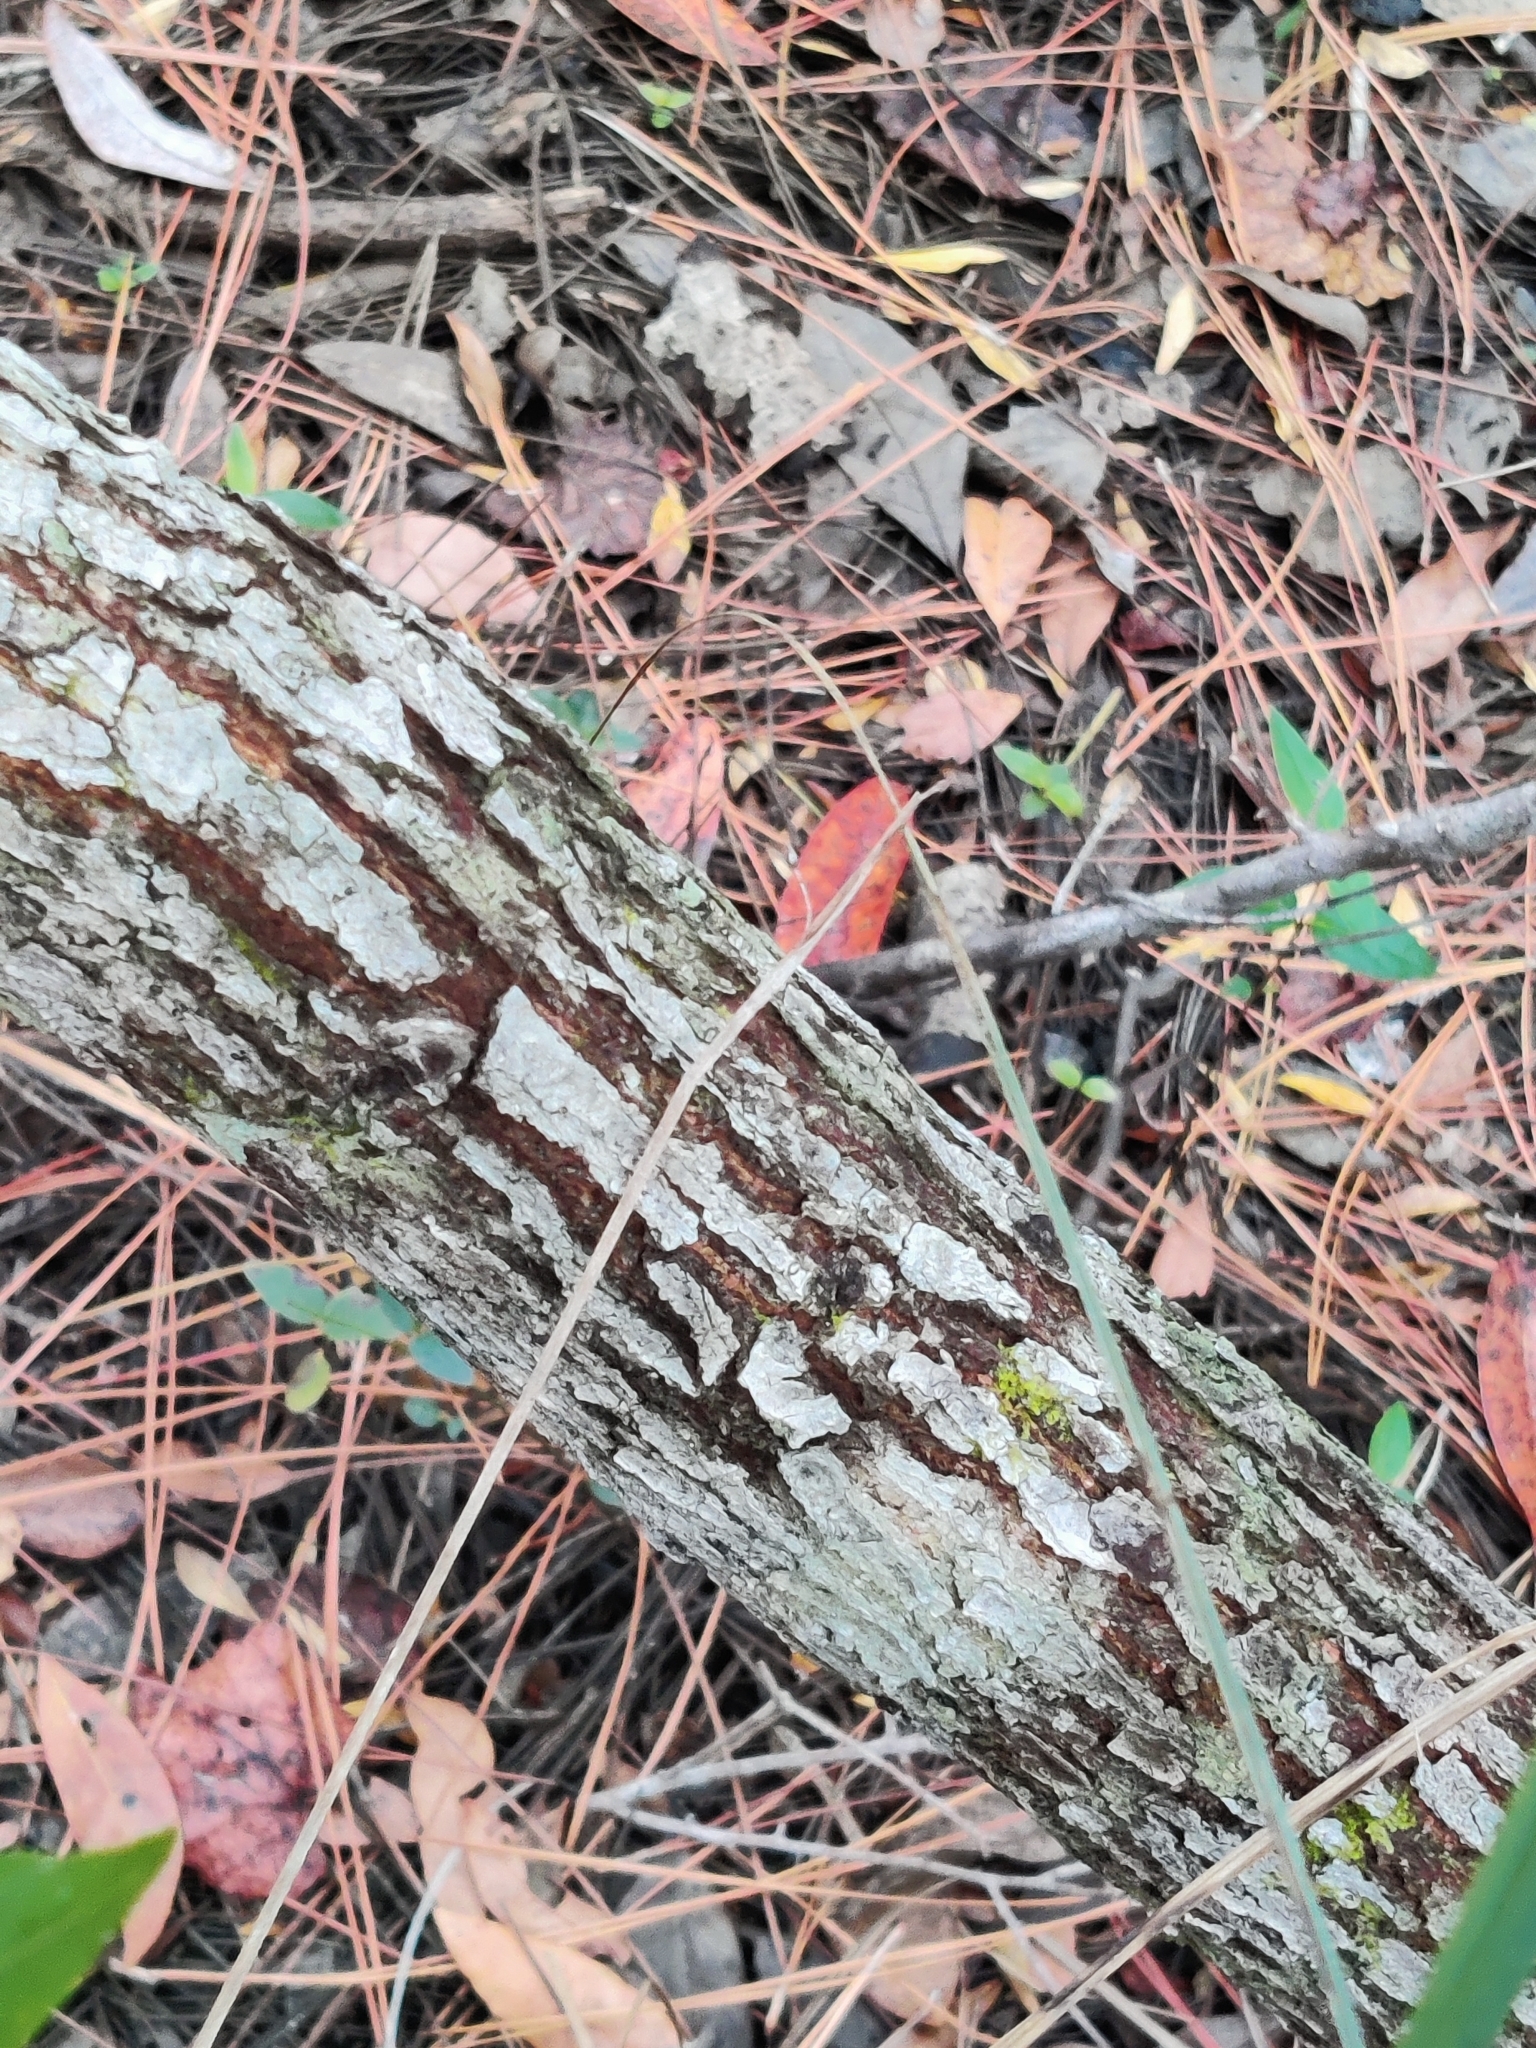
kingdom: Plantae
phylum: Tracheophyta
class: Magnoliopsida
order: Laurales
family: Lauraceae
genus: Persea
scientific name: Persea palustris
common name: Swampbay
